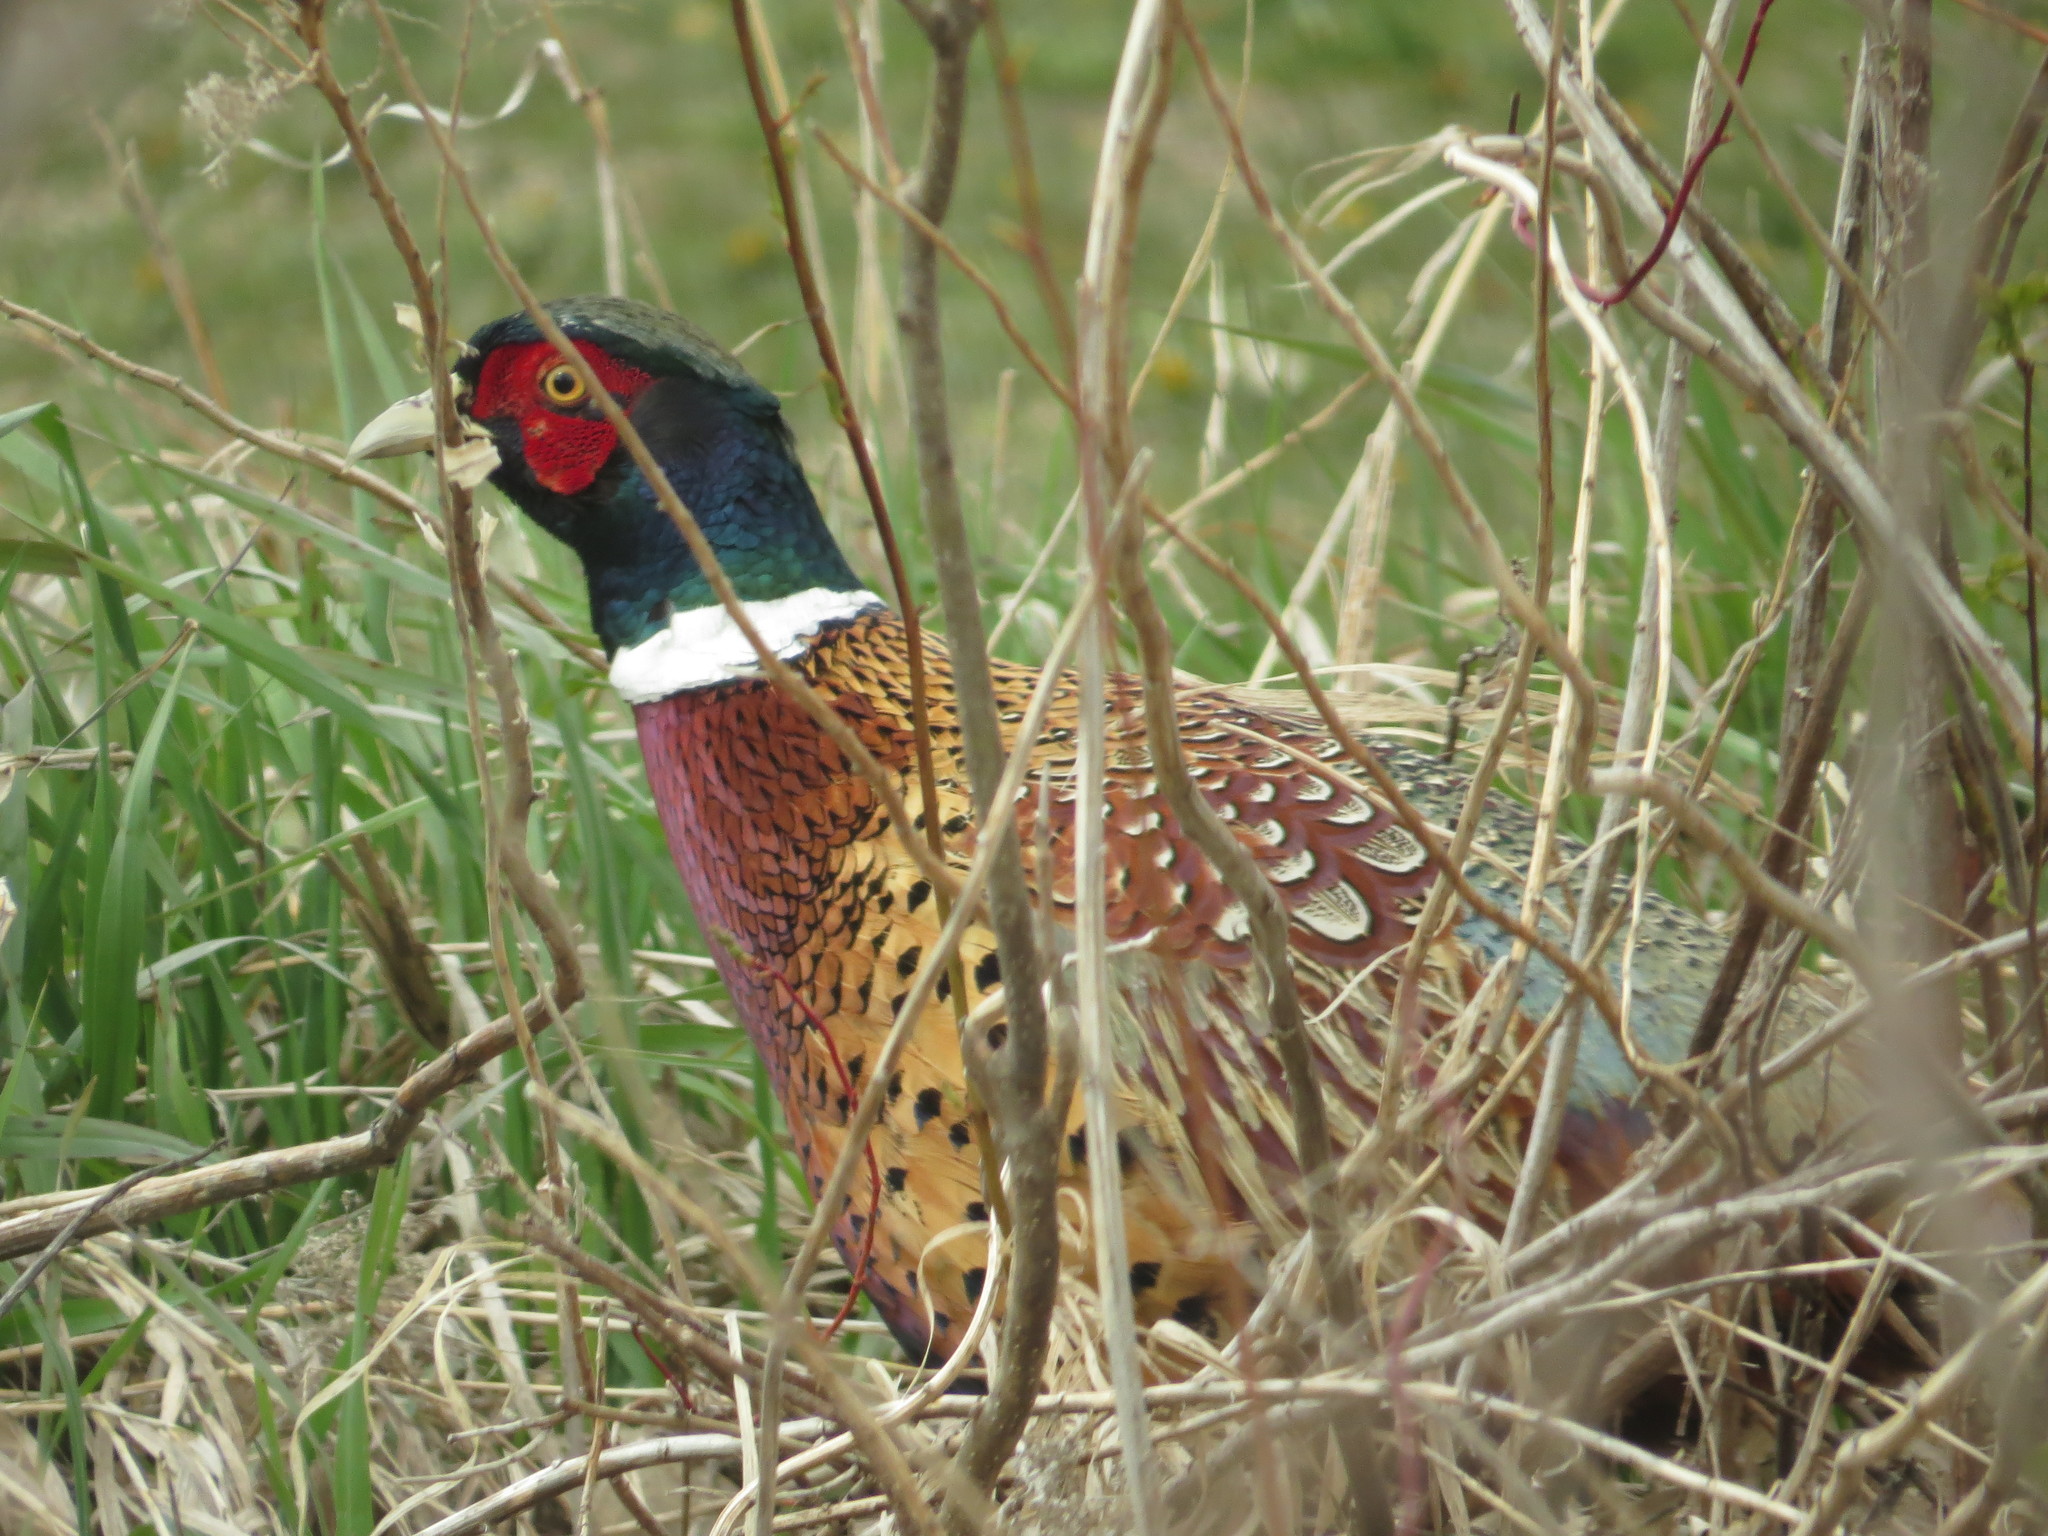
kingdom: Animalia
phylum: Chordata
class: Aves
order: Galliformes
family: Phasianidae
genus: Phasianus
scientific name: Phasianus colchicus
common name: Common pheasant
